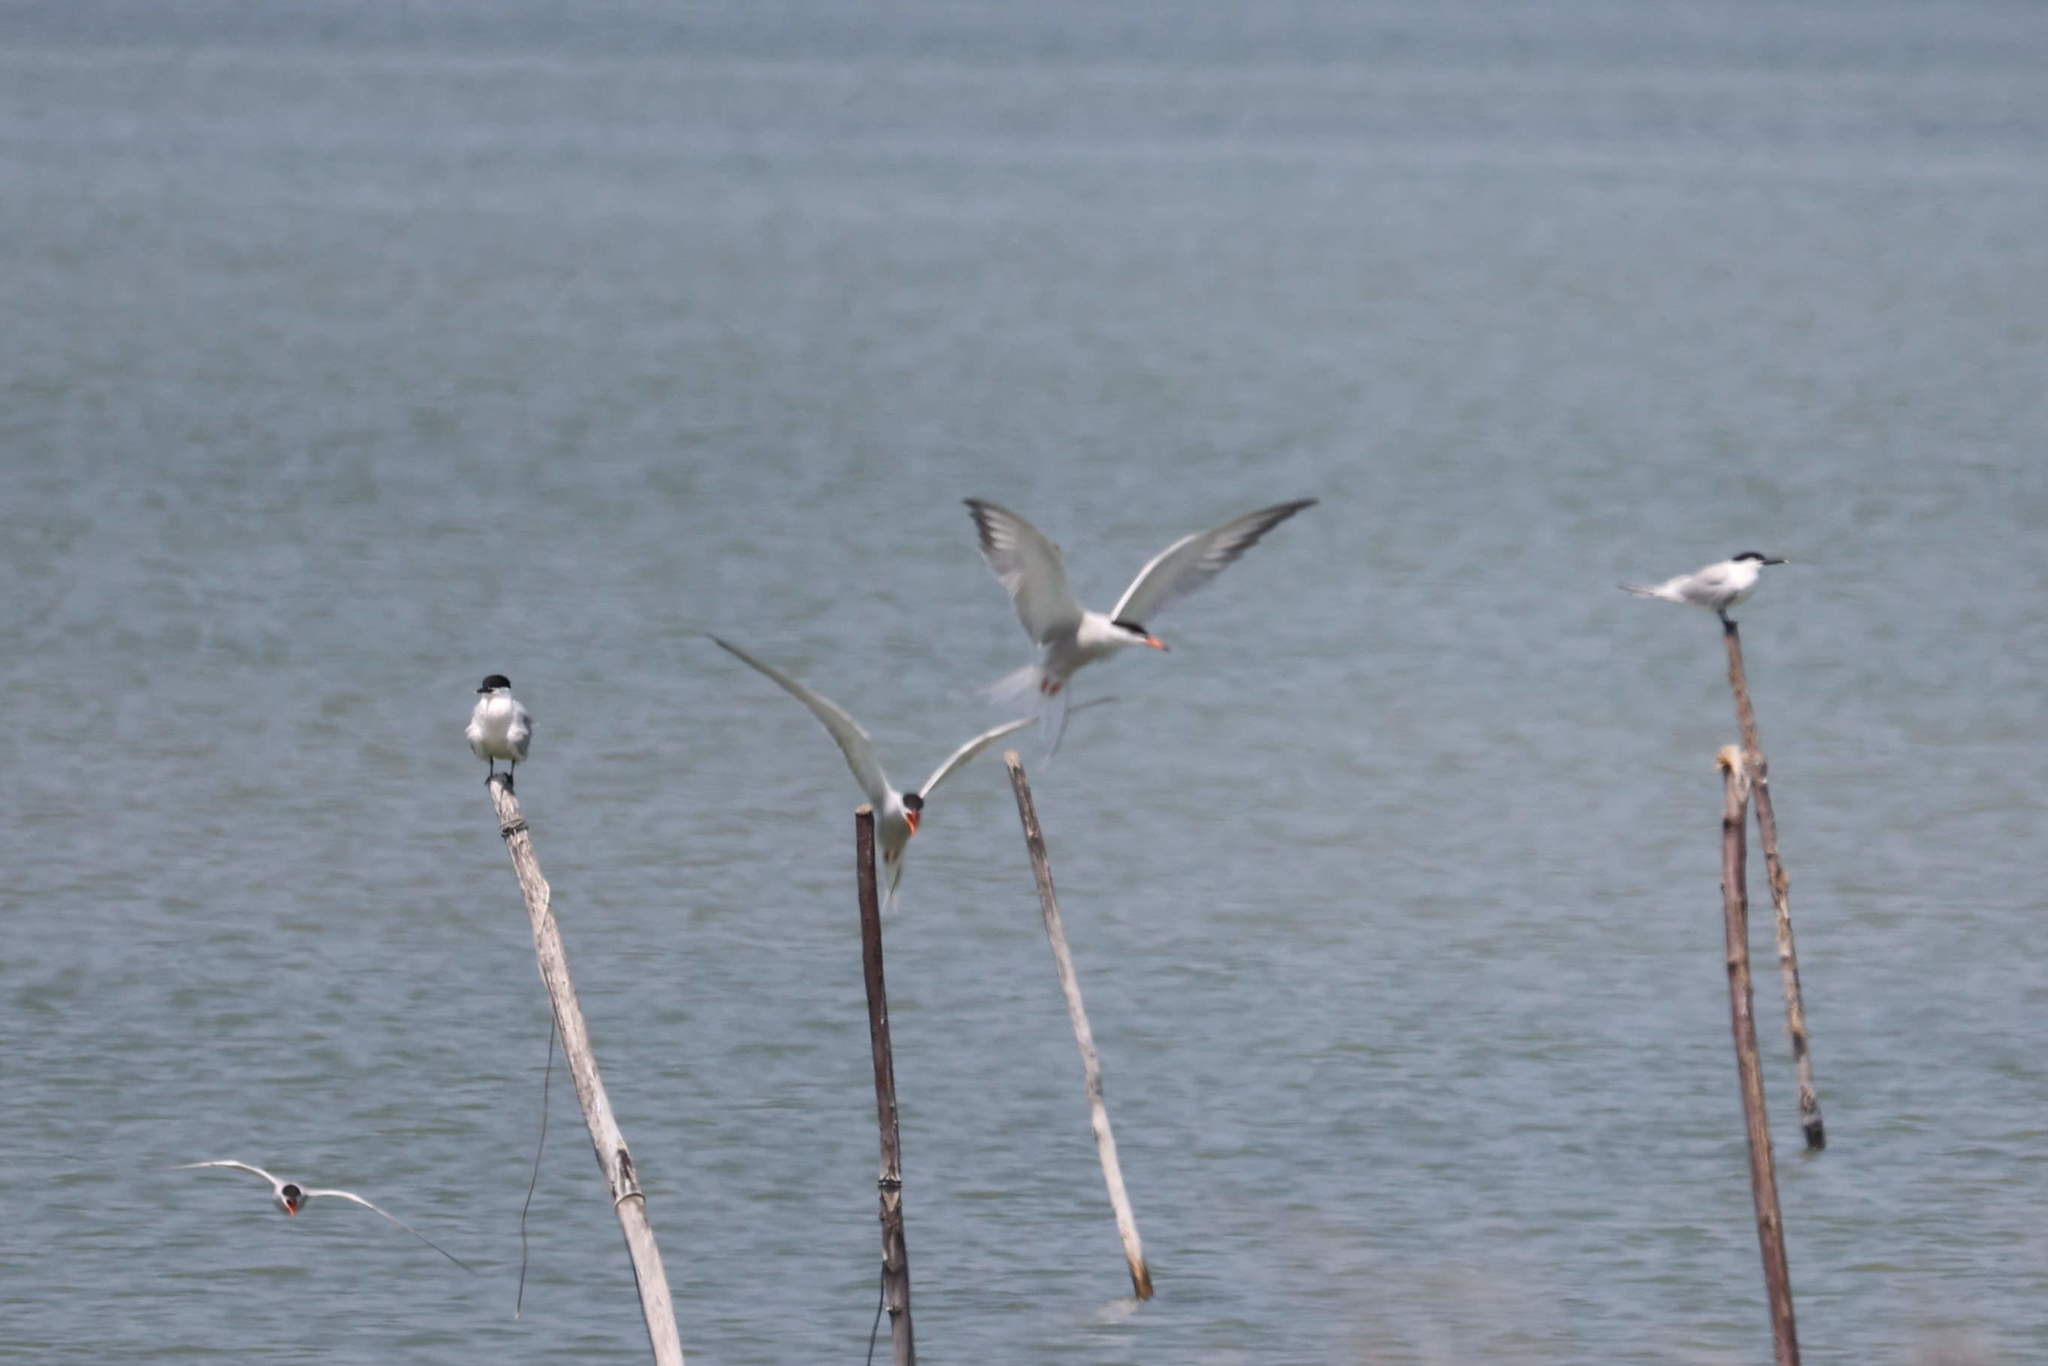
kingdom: Animalia
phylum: Chordata
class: Aves
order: Charadriiformes
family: Laridae
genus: Sterna
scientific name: Sterna hirundo
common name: Common tern
